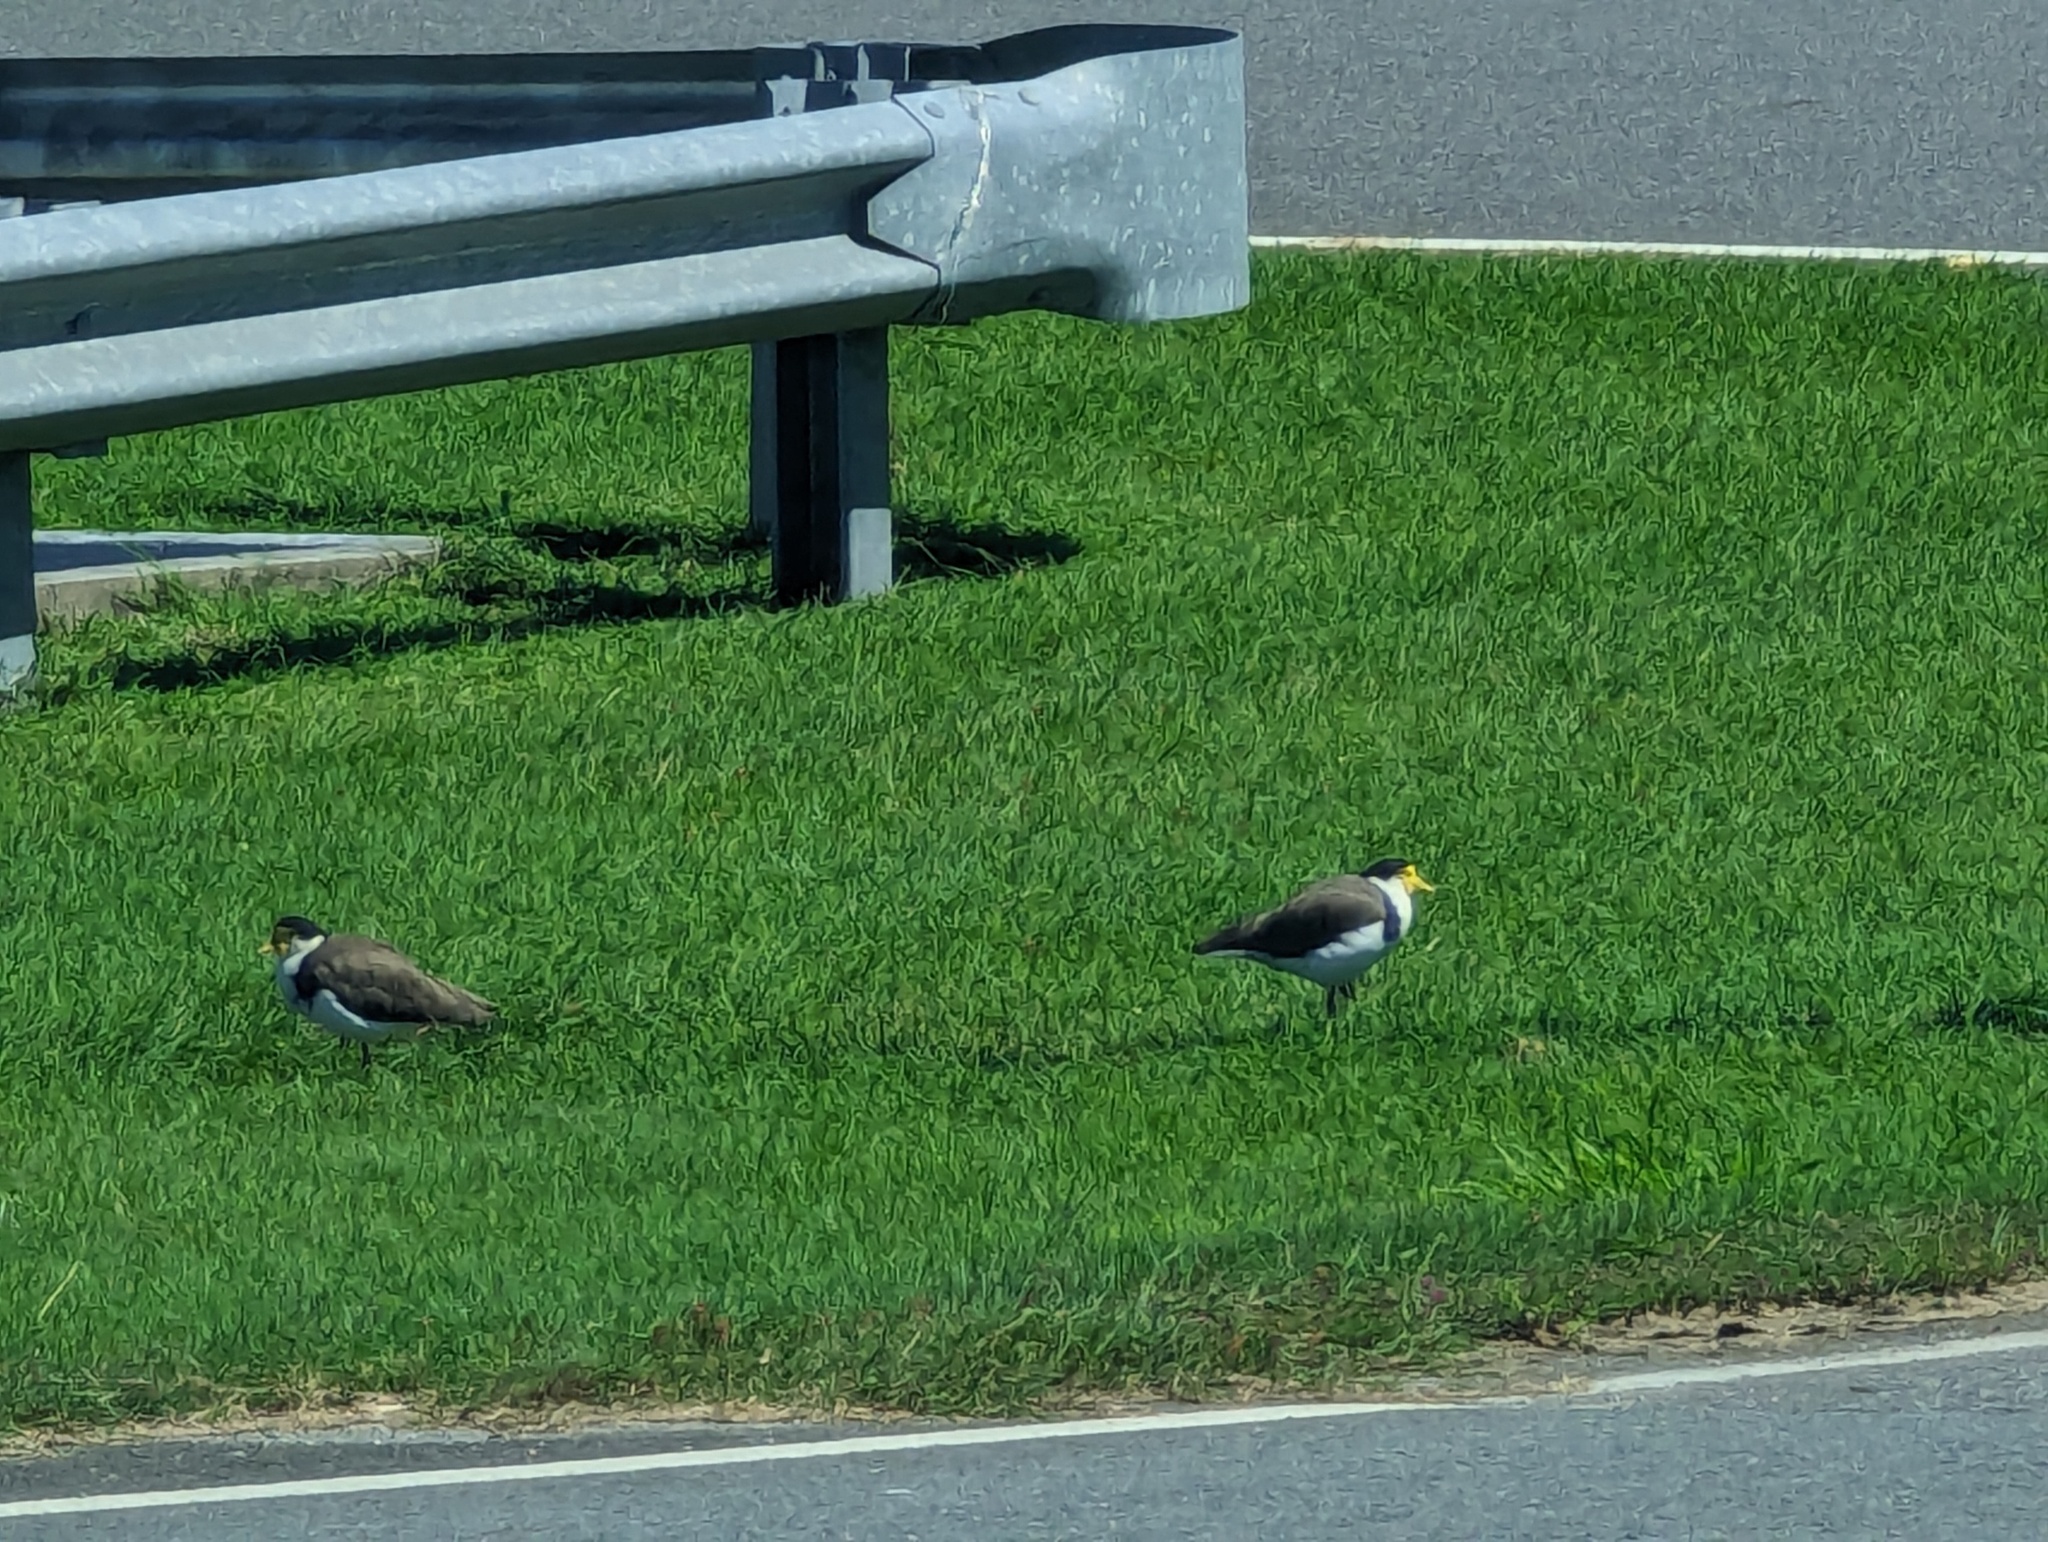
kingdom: Animalia
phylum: Chordata
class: Aves
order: Charadriiformes
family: Charadriidae
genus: Vanellus
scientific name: Vanellus miles
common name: Masked lapwing
